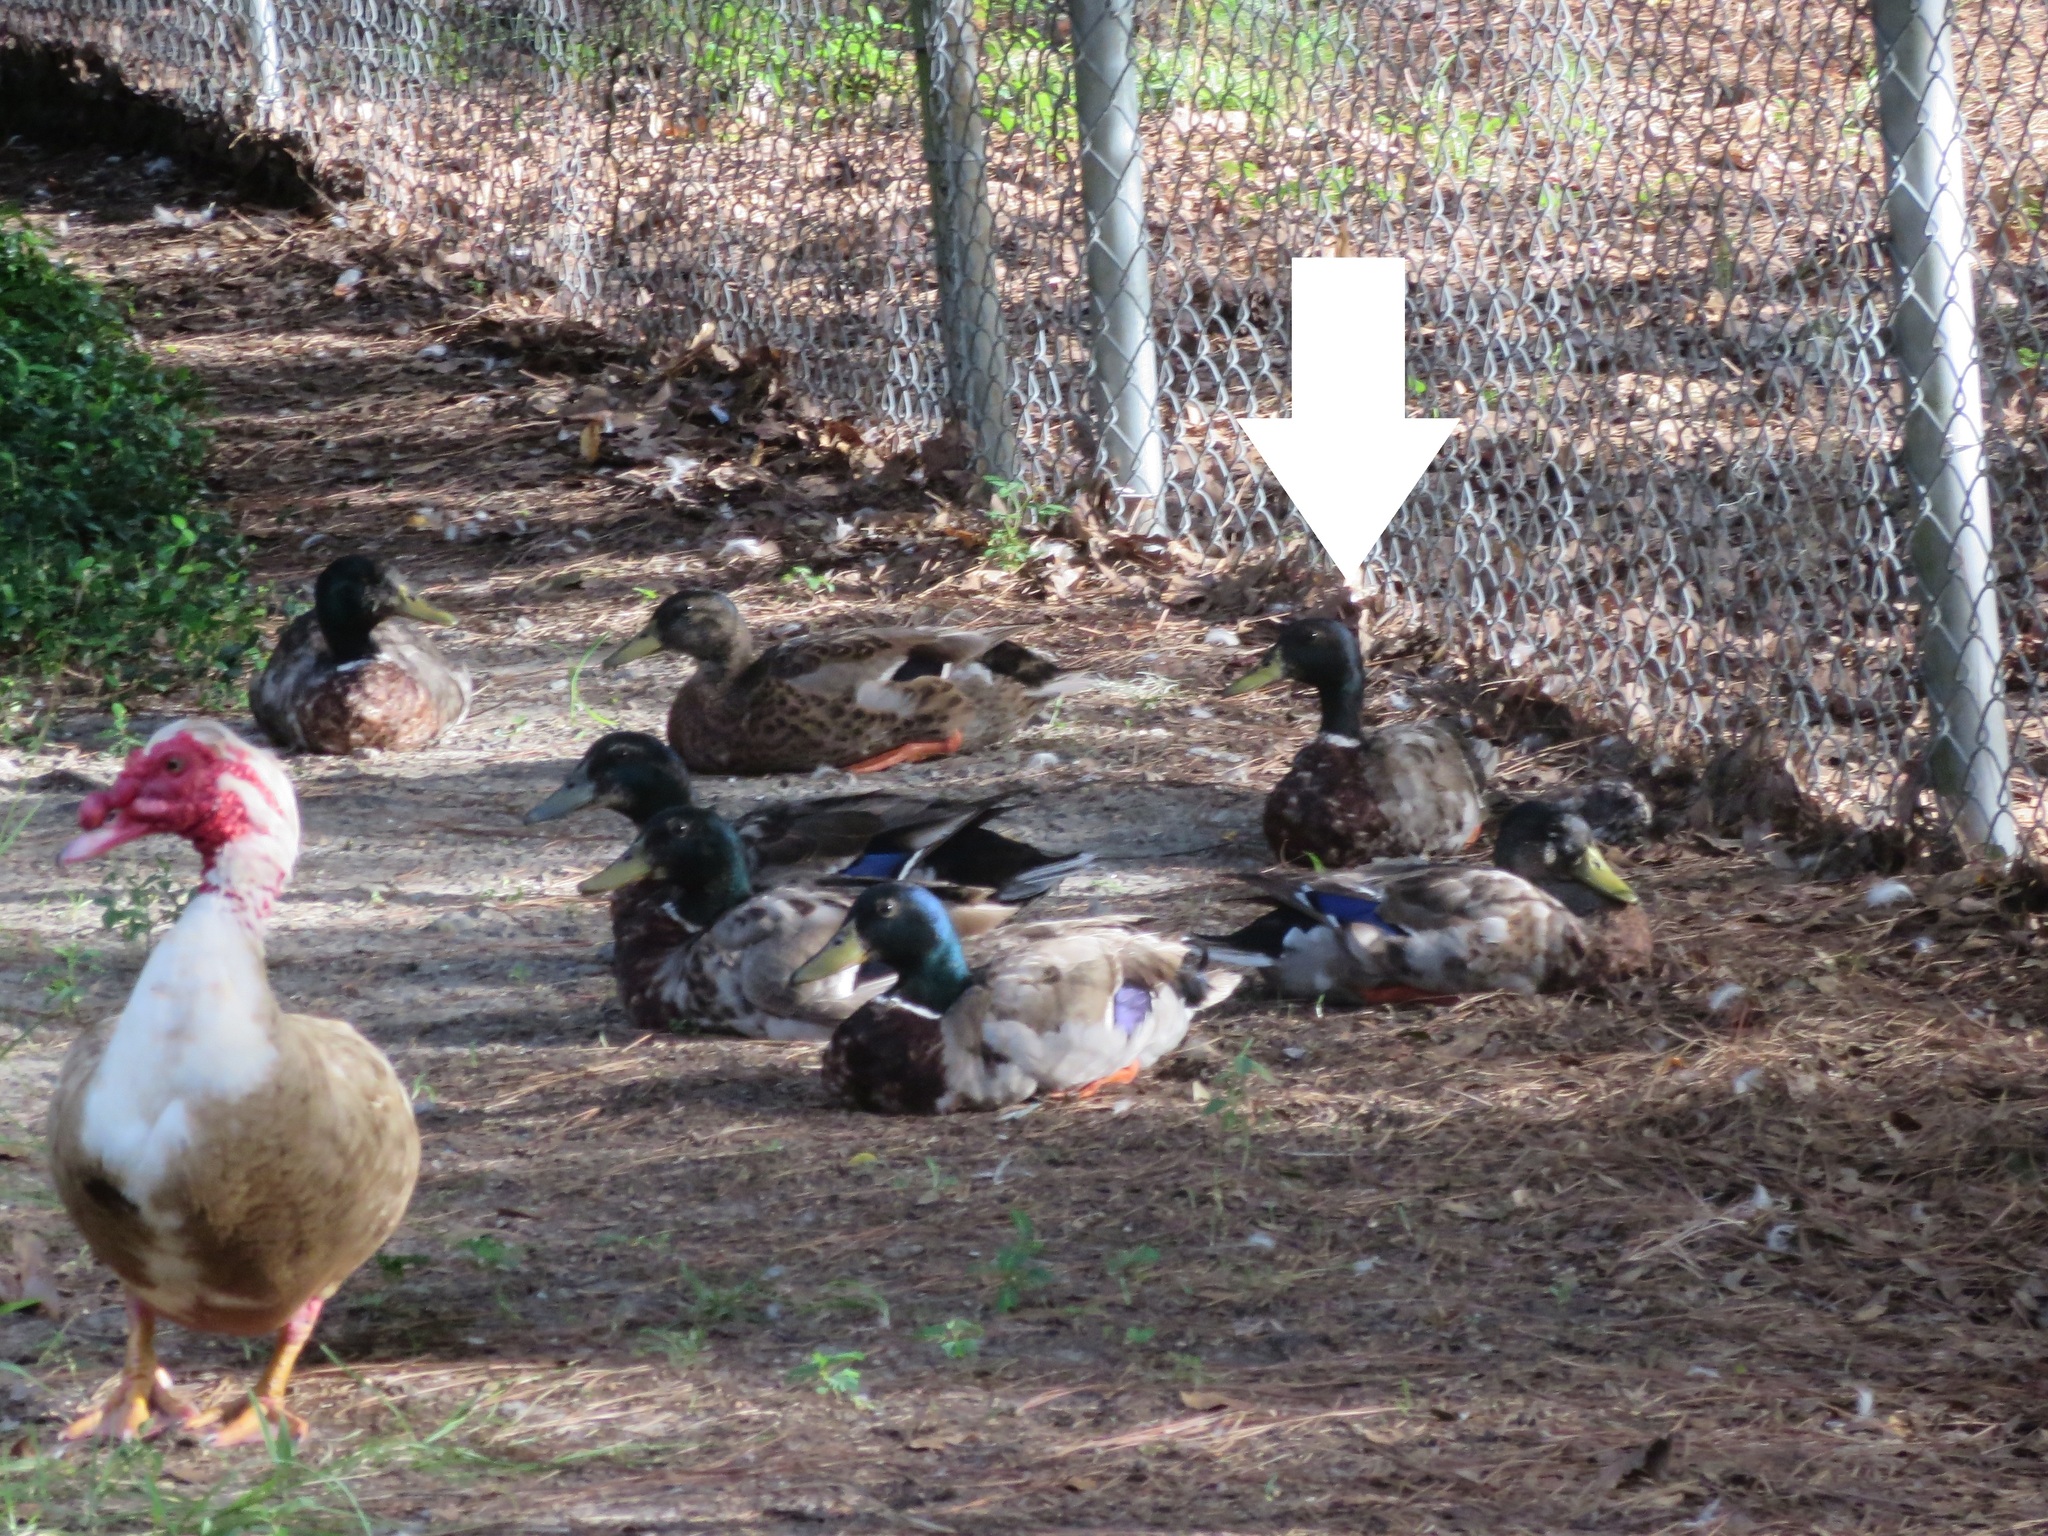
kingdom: Animalia
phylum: Chordata
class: Aves
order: Anseriformes
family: Anatidae
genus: Anas
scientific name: Anas platyrhynchos
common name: Mallard
